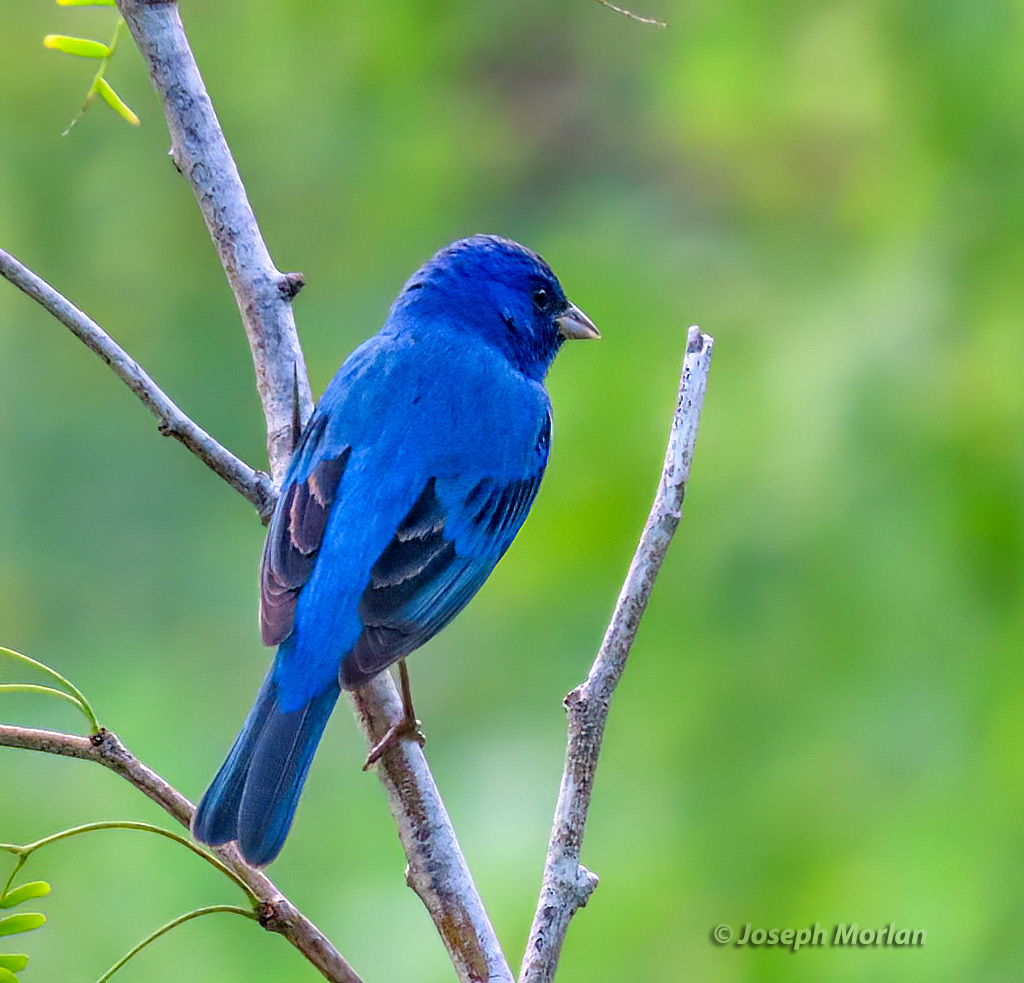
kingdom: Animalia
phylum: Chordata
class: Aves
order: Passeriformes
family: Cardinalidae
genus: Passerina
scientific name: Passerina cyanea
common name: Indigo bunting
